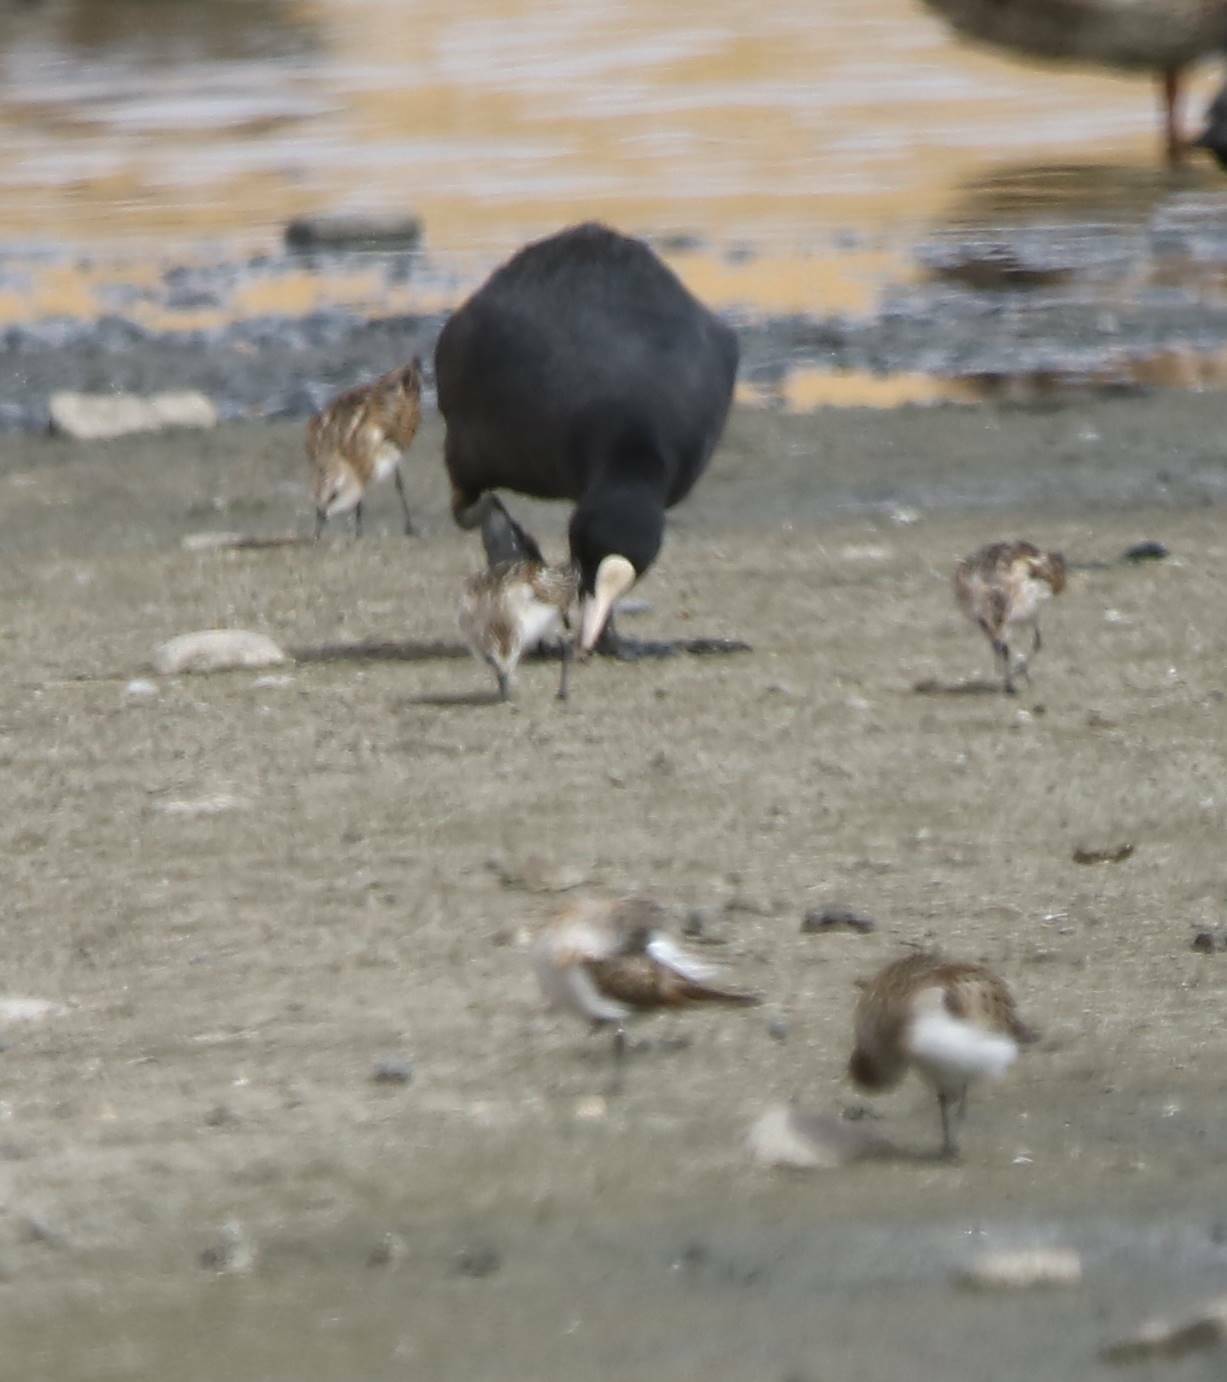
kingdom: Animalia
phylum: Chordata
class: Aves
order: Gruiformes
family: Rallidae
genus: Fulica
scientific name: Fulica atra
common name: Eurasian coot
